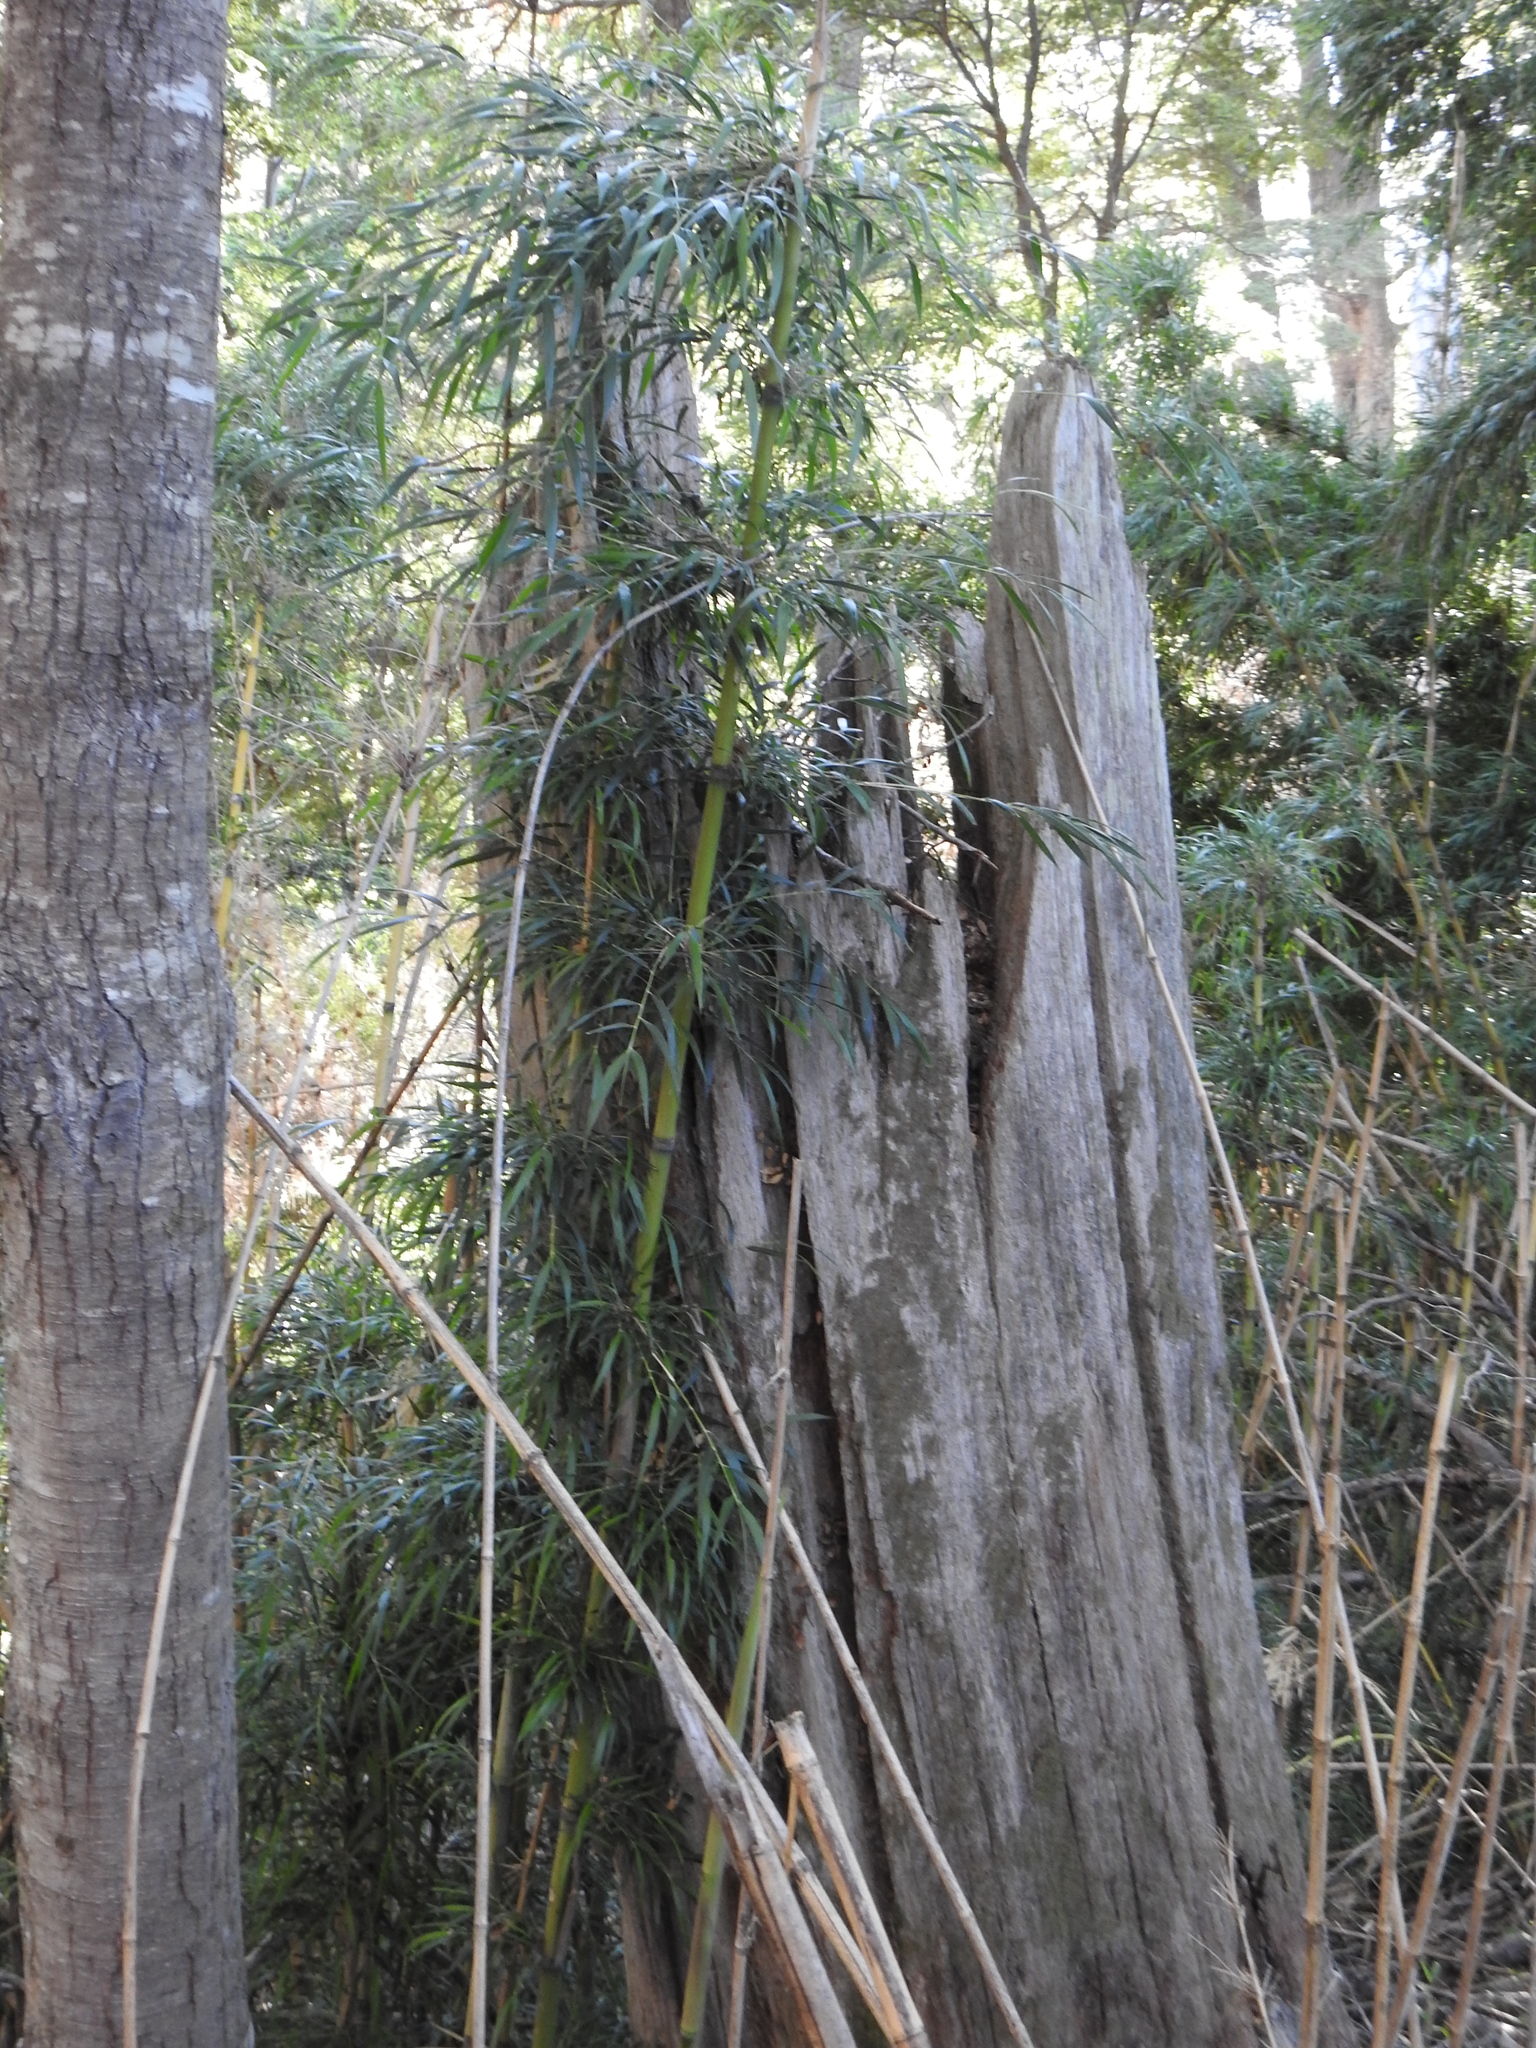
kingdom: Plantae
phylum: Tracheophyta
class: Liliopsida
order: Poales
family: Poaceae
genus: Chusquea
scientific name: Chusquea culeou
